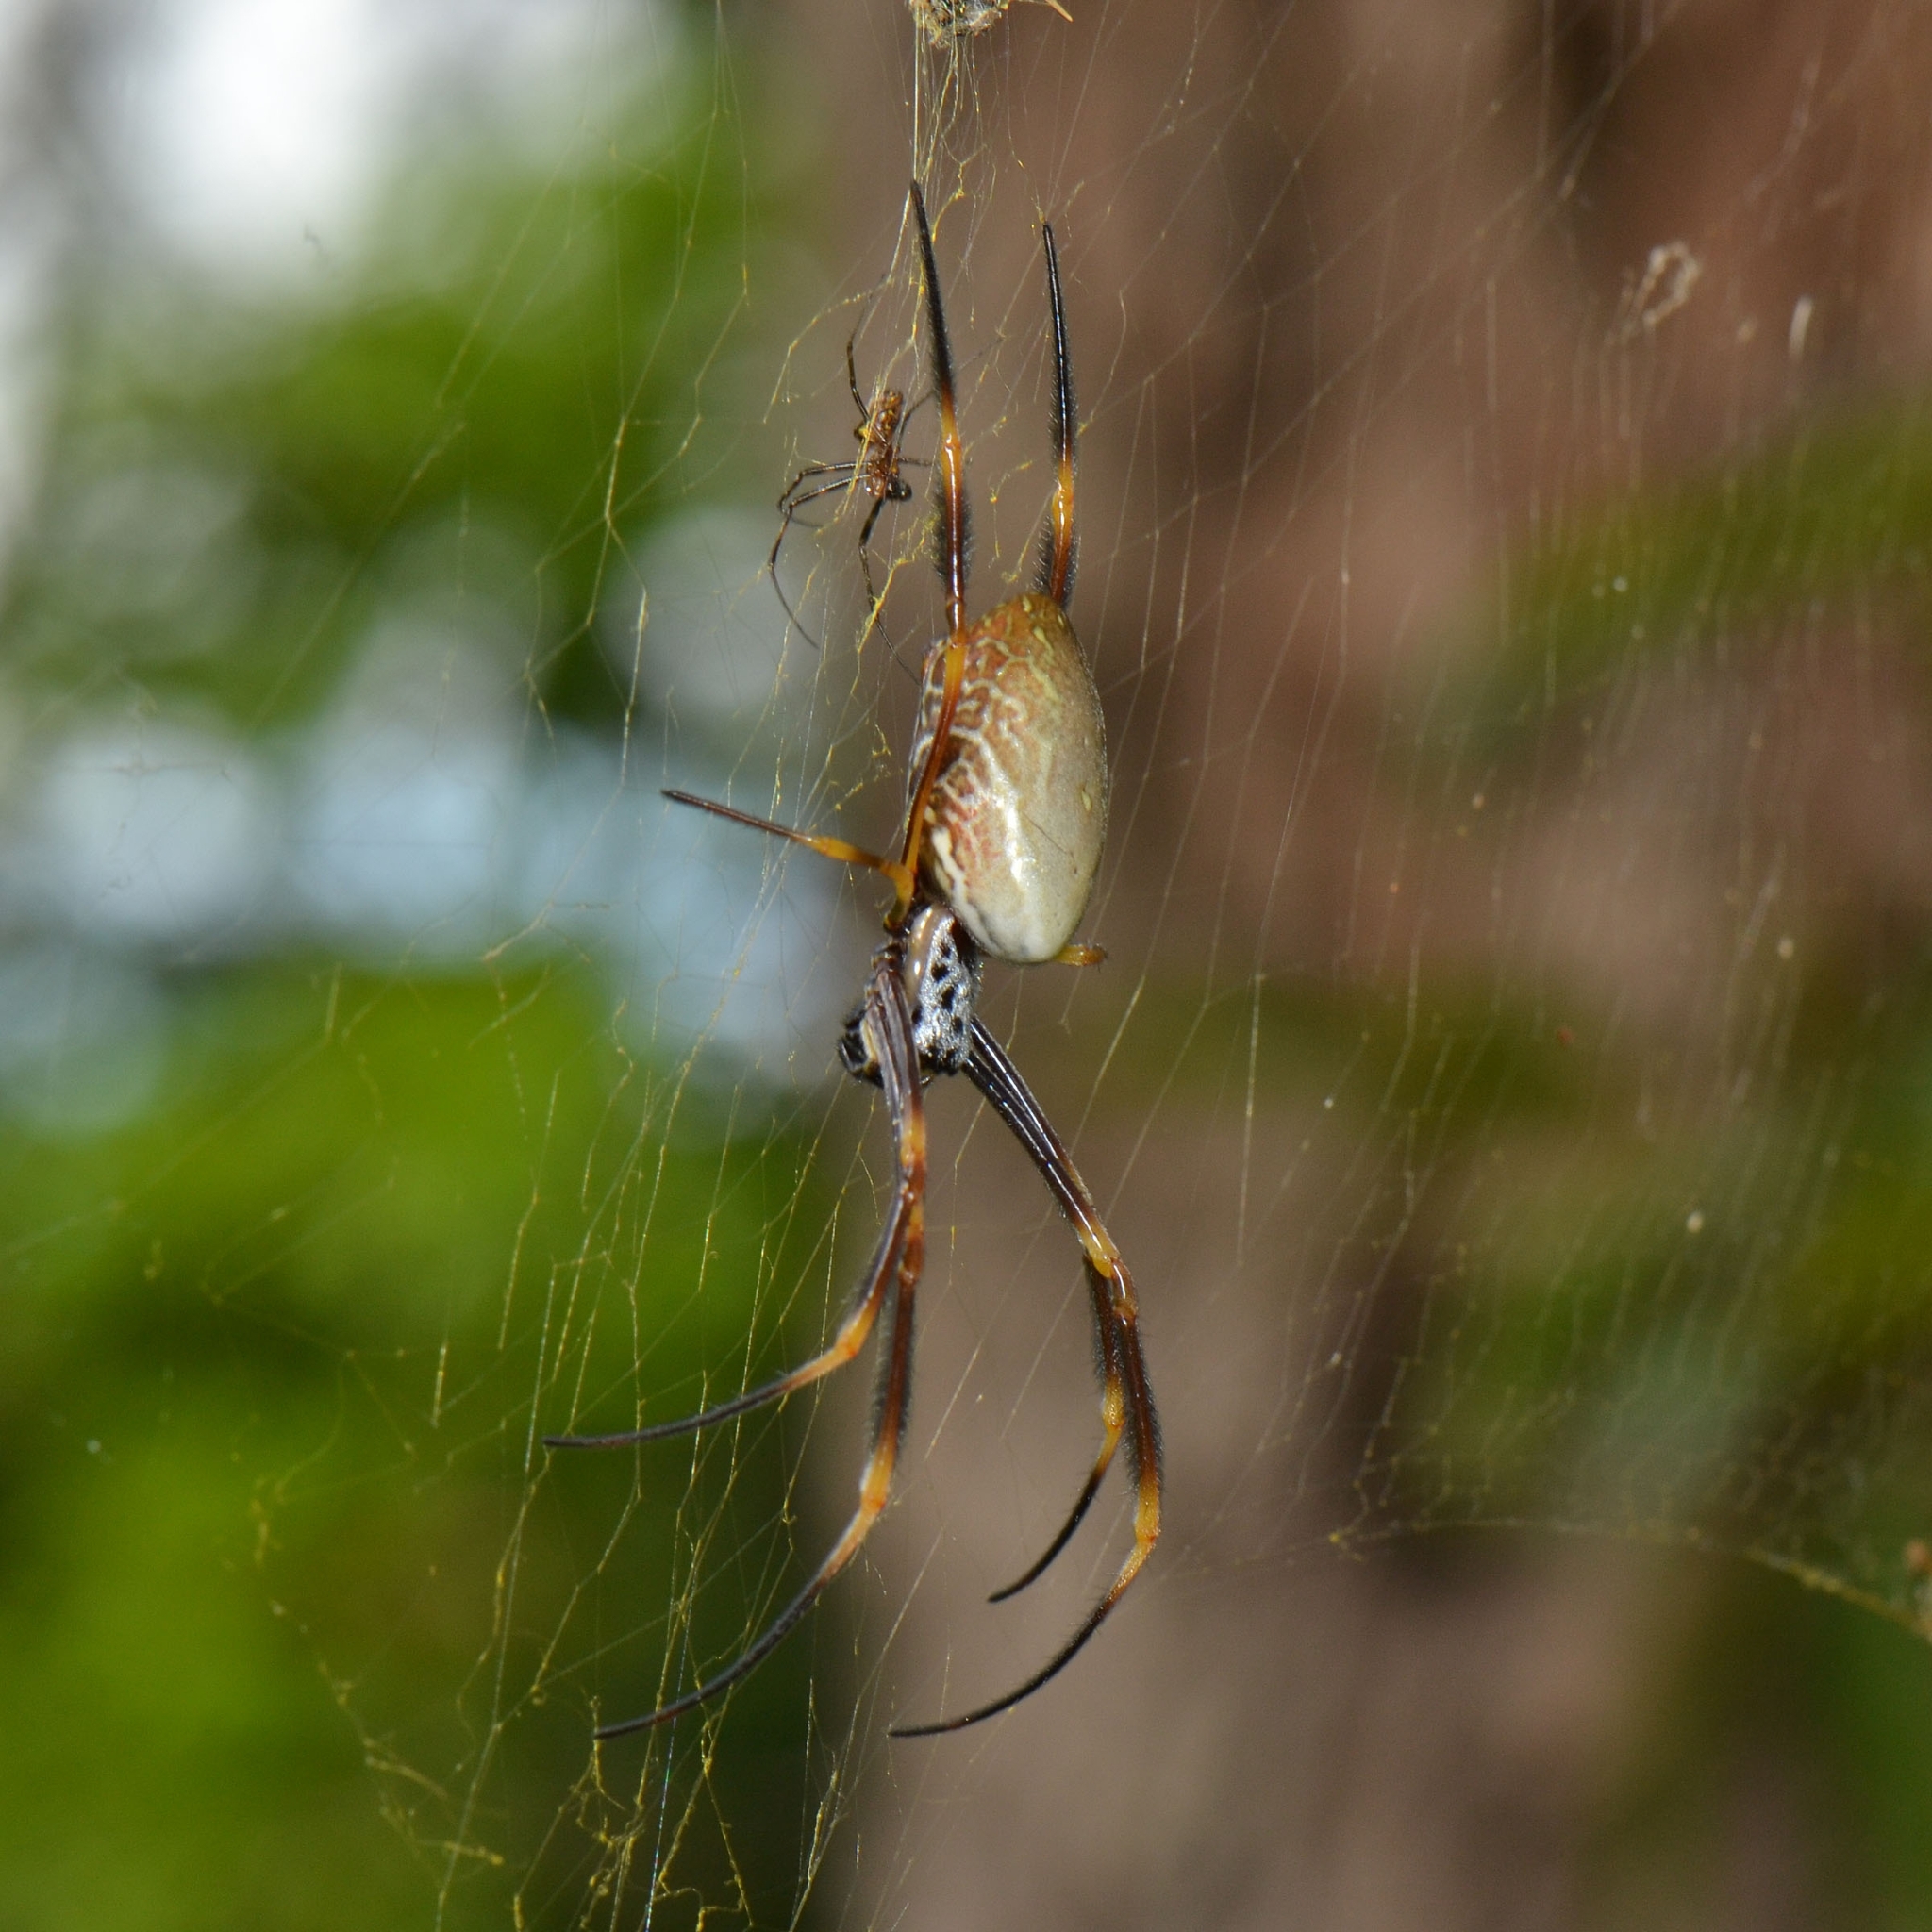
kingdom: Animalia
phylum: Arthropoda
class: Arachnida
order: Araneae
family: Araneidae
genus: Trichonephila
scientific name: Trichonephila plumipes
